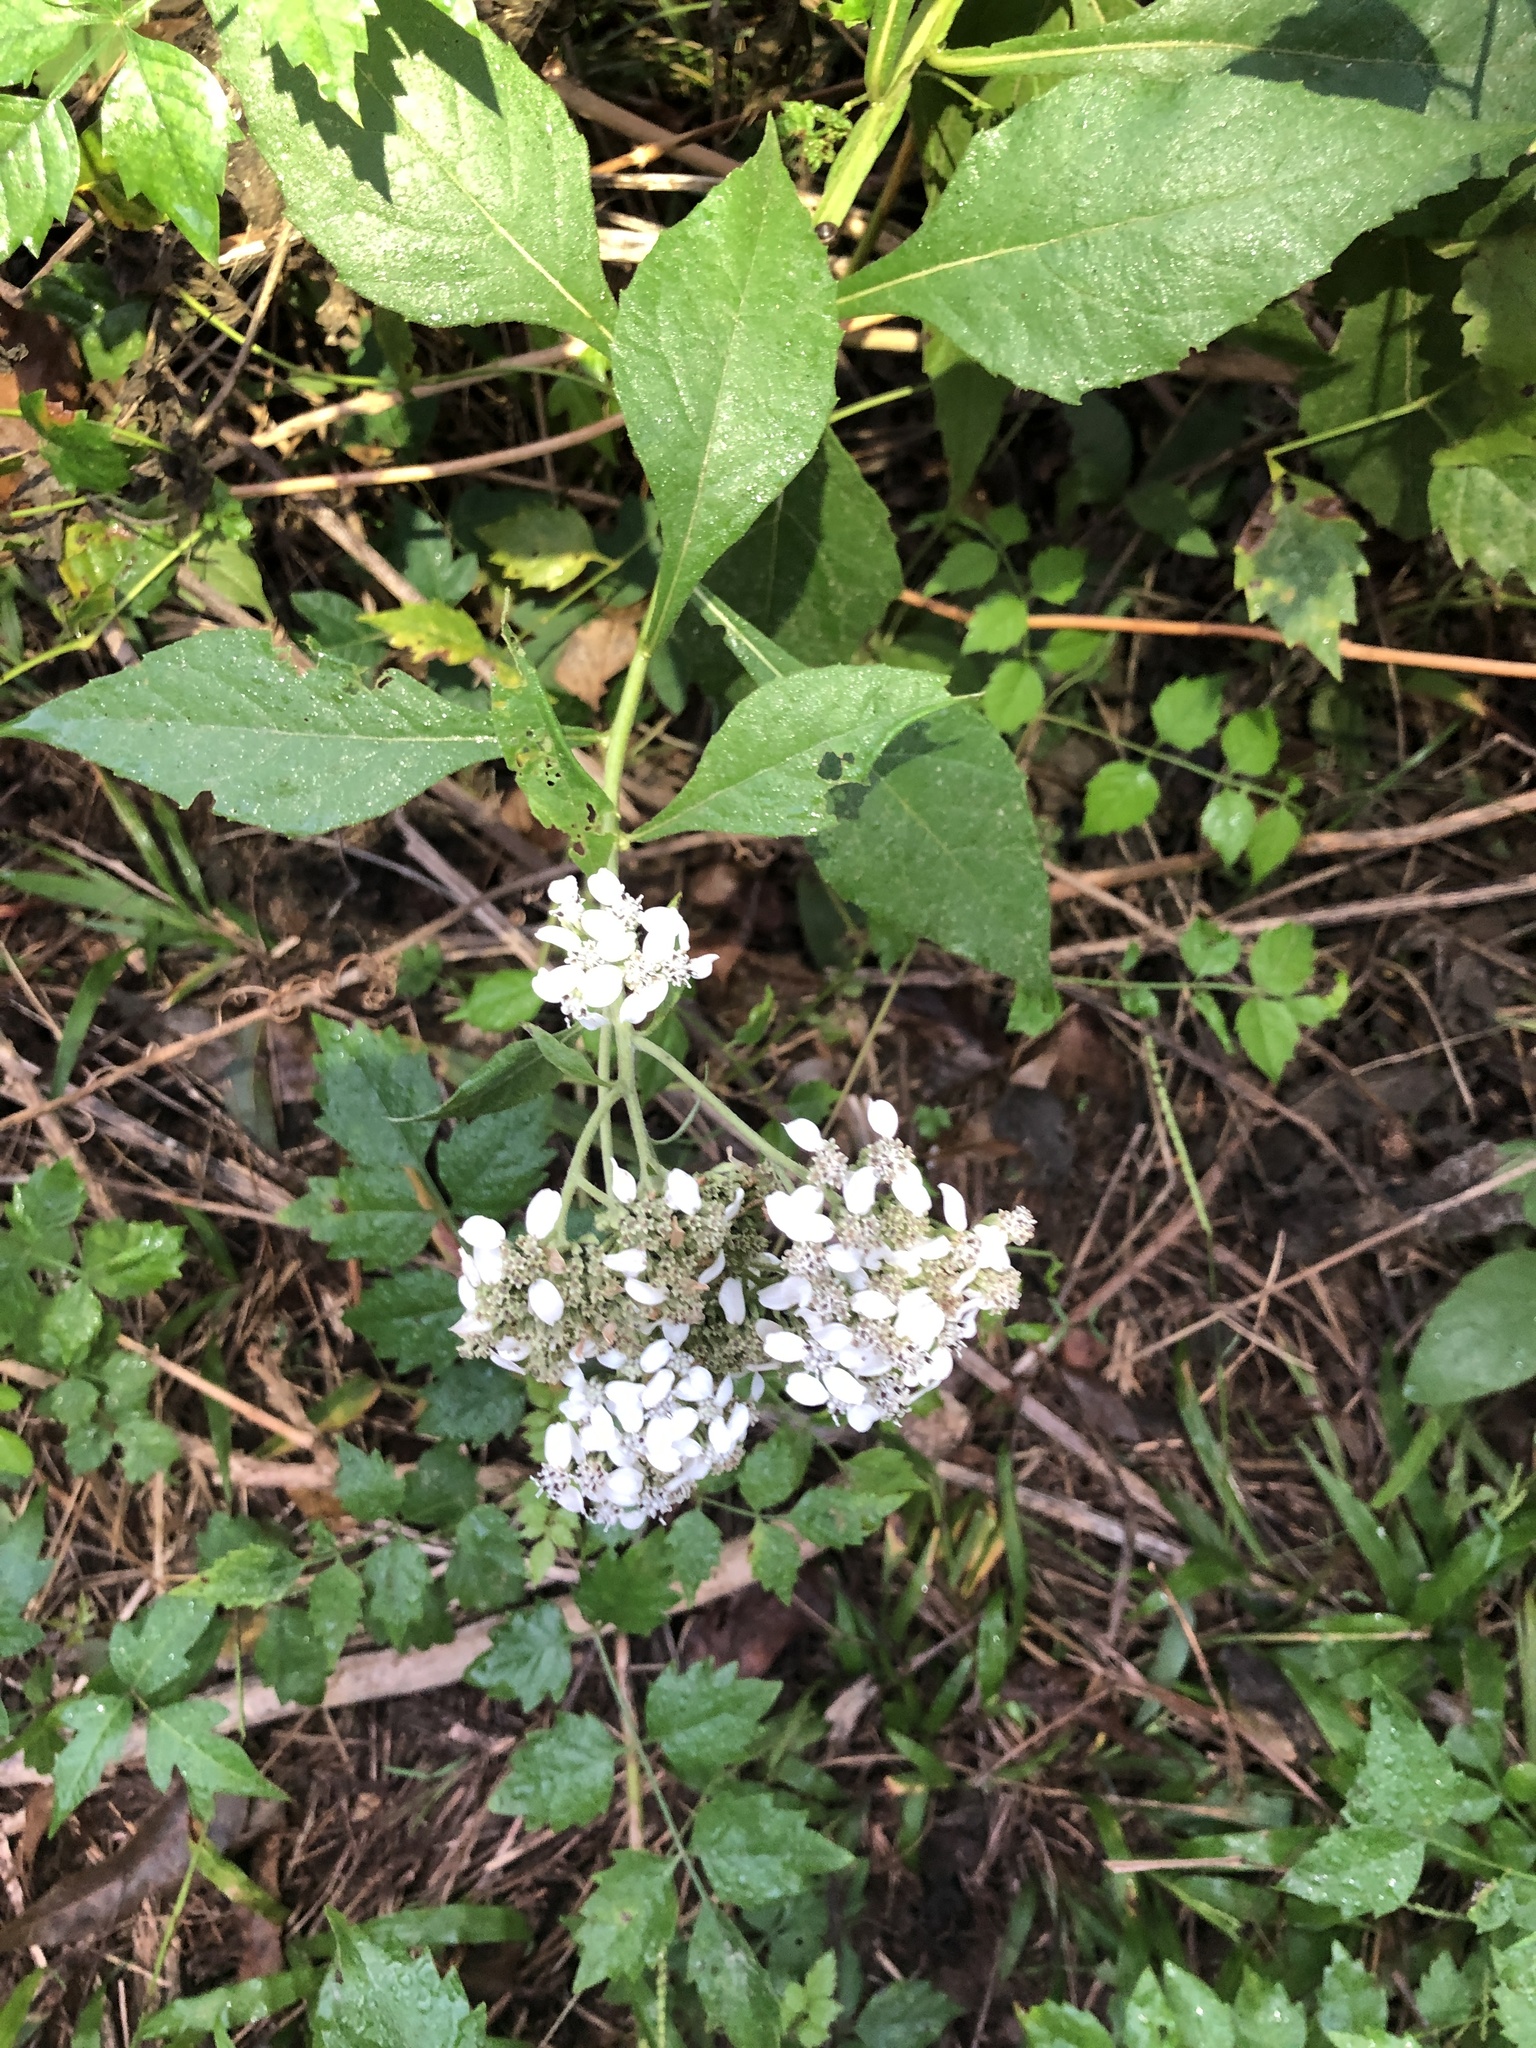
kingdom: Plantae
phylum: Tracheophyta
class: Magnoliopsida
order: Asterales
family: Asteraceae
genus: Verbesina
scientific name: Verbesina virginica
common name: Frostweed
